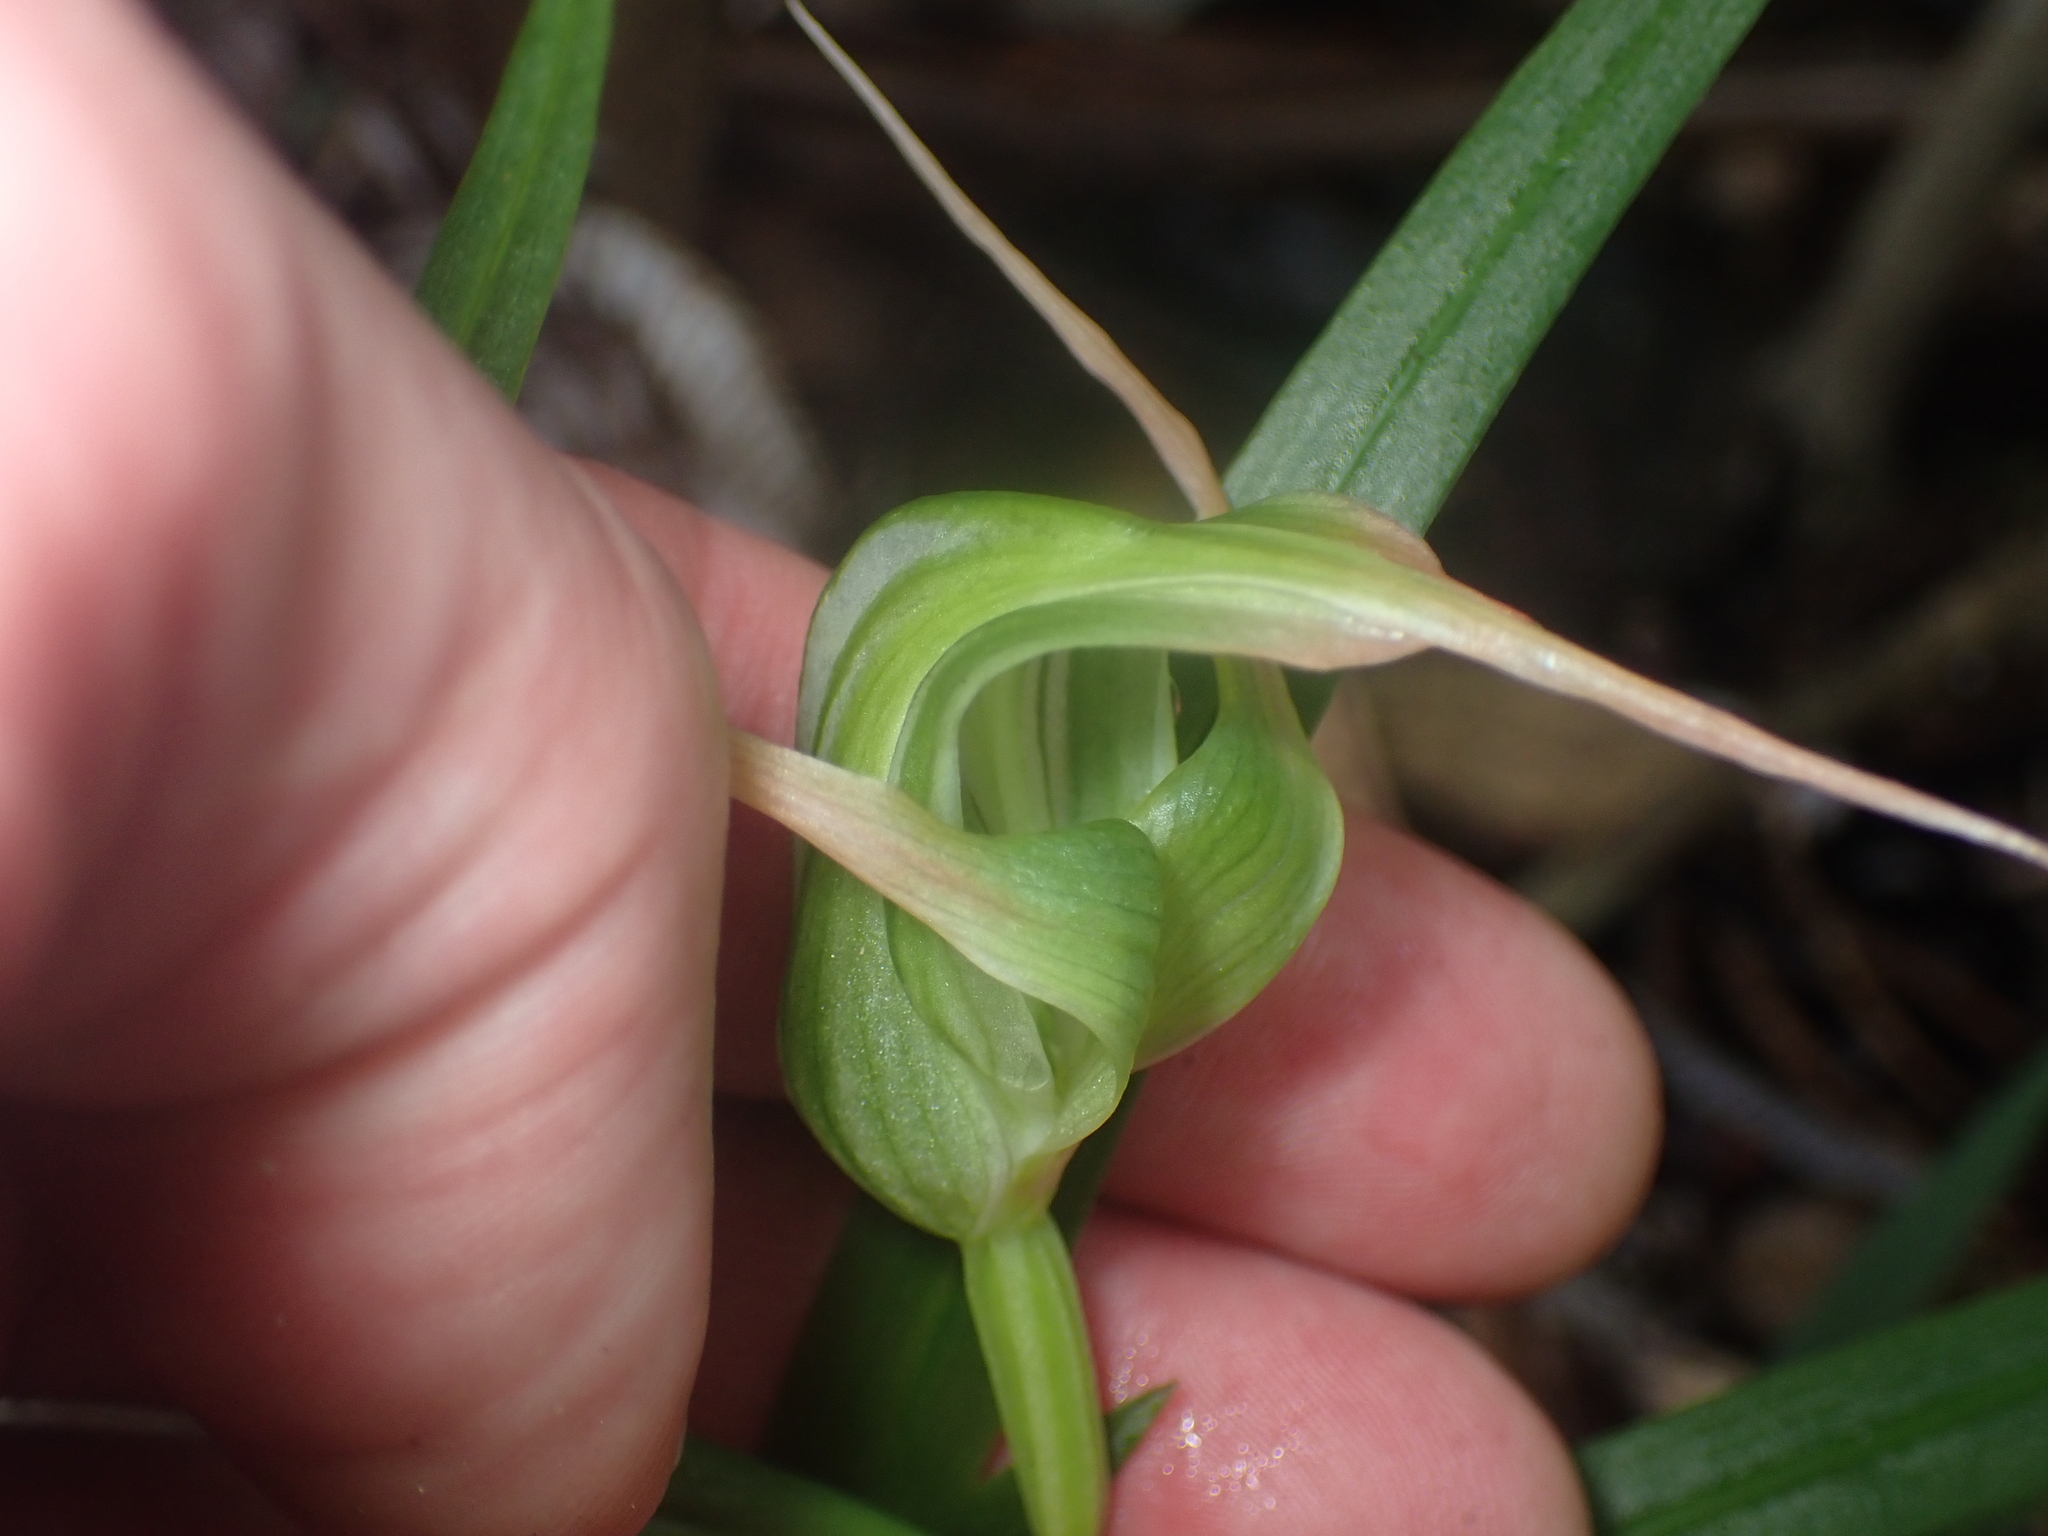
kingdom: Plantae
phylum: Tracheophyta
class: Liliopsida
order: Asparagales
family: Orchidaceae
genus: Pterostylis
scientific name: Pterostylis banksii
